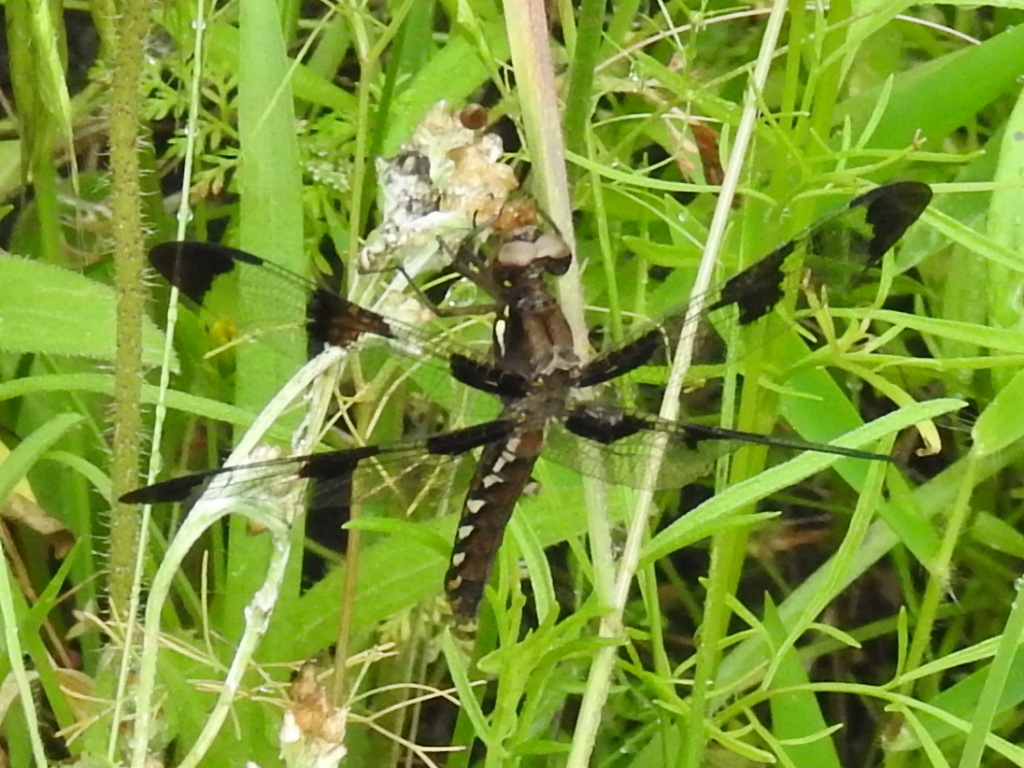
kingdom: Animalia
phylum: Arthropoda
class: Insecta
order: Odonata
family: Libellulidae
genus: Plathemis
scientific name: Plathemis lydia
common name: Common whitetail
